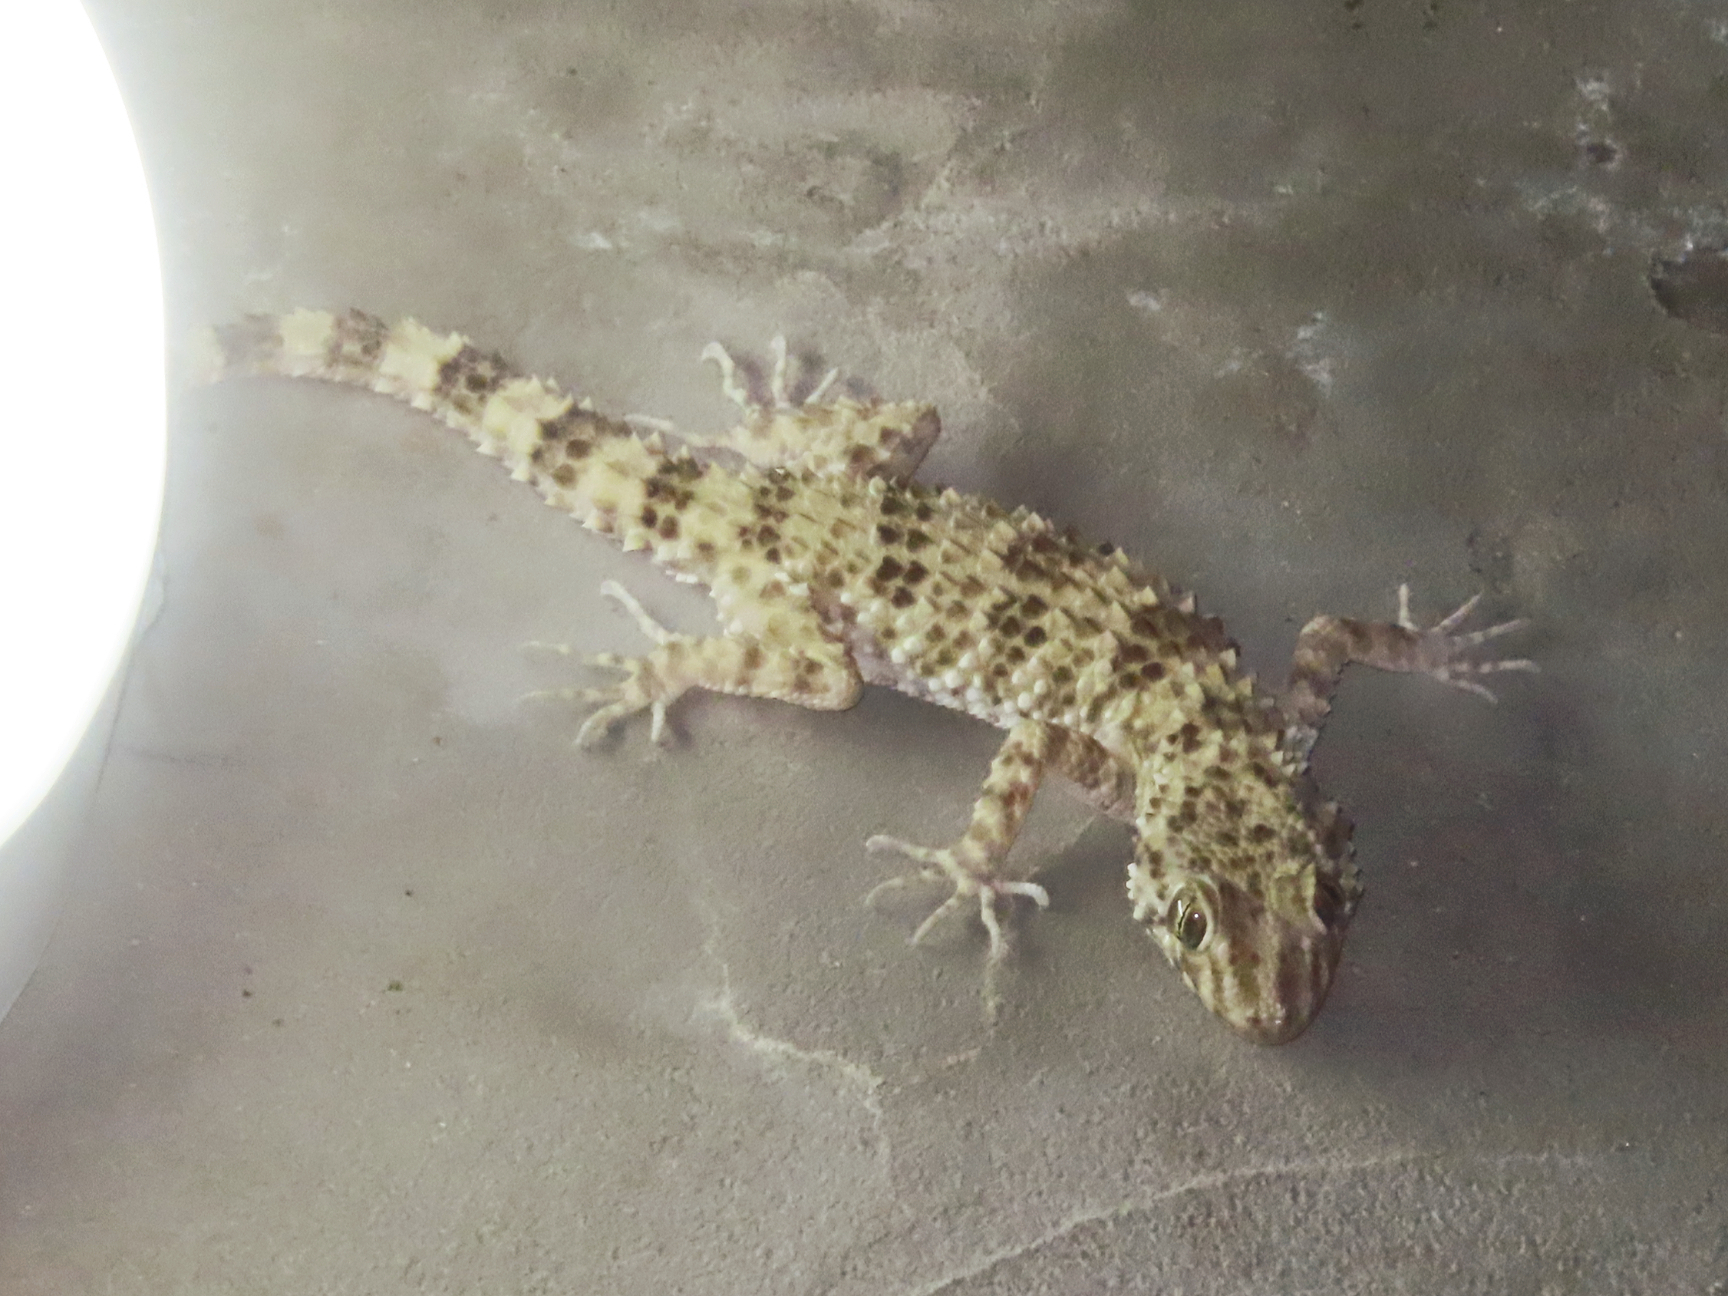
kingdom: Animalia
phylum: Chordata
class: Squamata
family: Gekkonidae
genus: Tenuidactylus
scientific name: Tenuidactylus caspius
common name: Caspian bent-toed gecko
